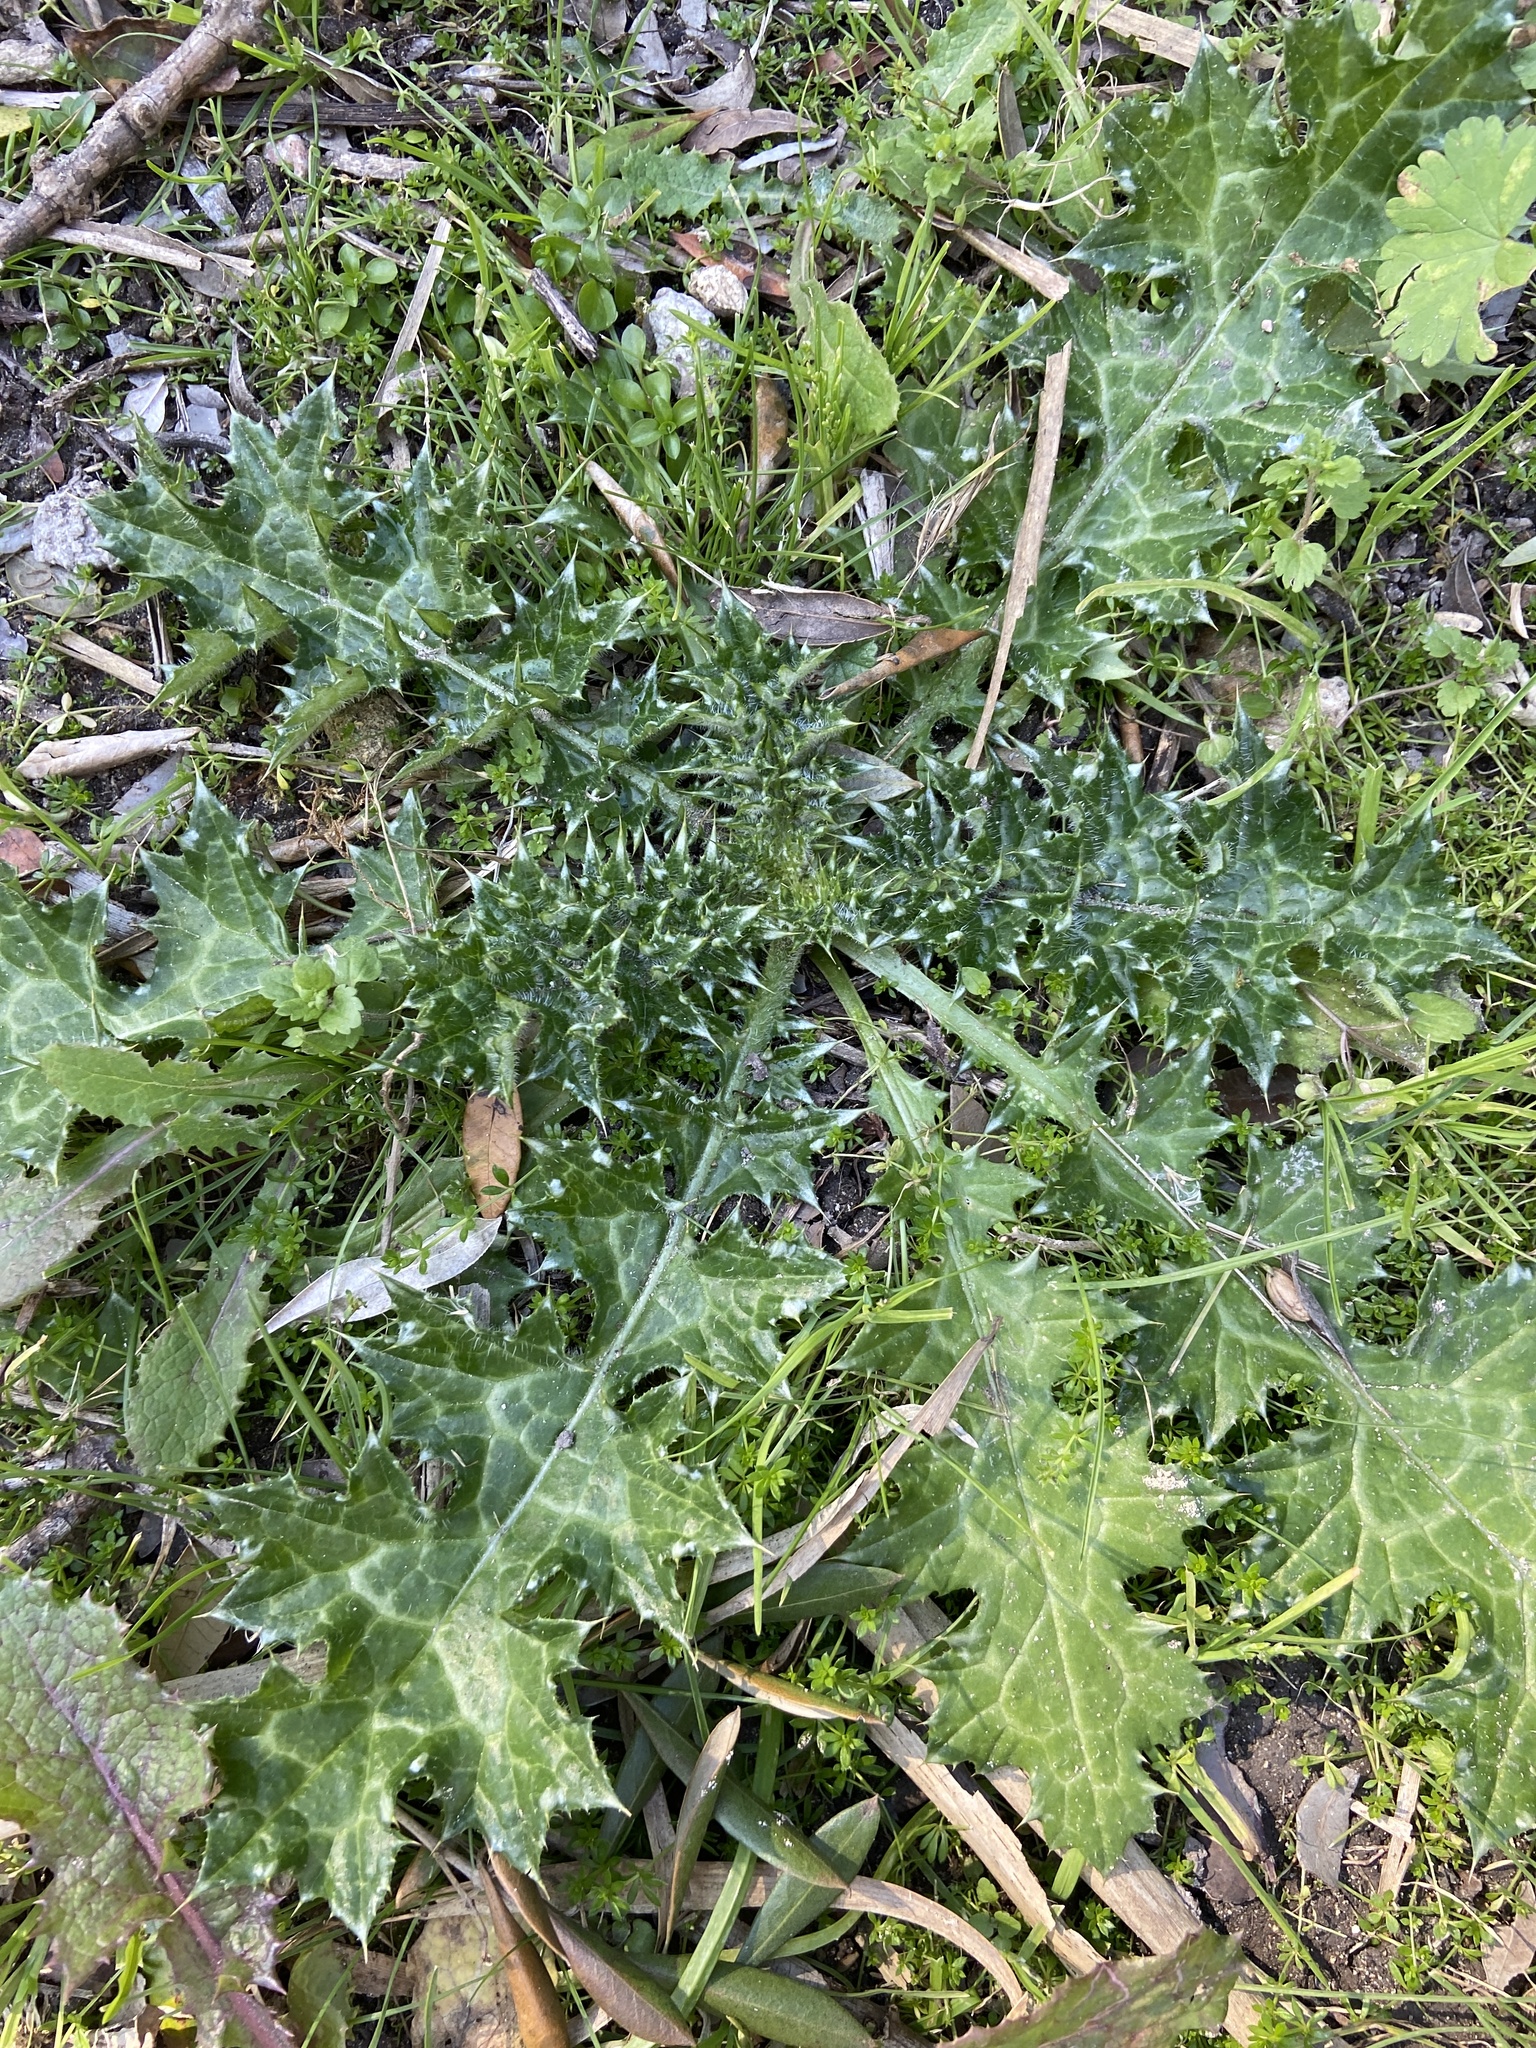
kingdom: Plantae
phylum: Tracheophyta
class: Magnoliopsida
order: Asterales
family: Asteraceae
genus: Carduus
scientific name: Carduus pycnocephalus
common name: Plymouth thistle
